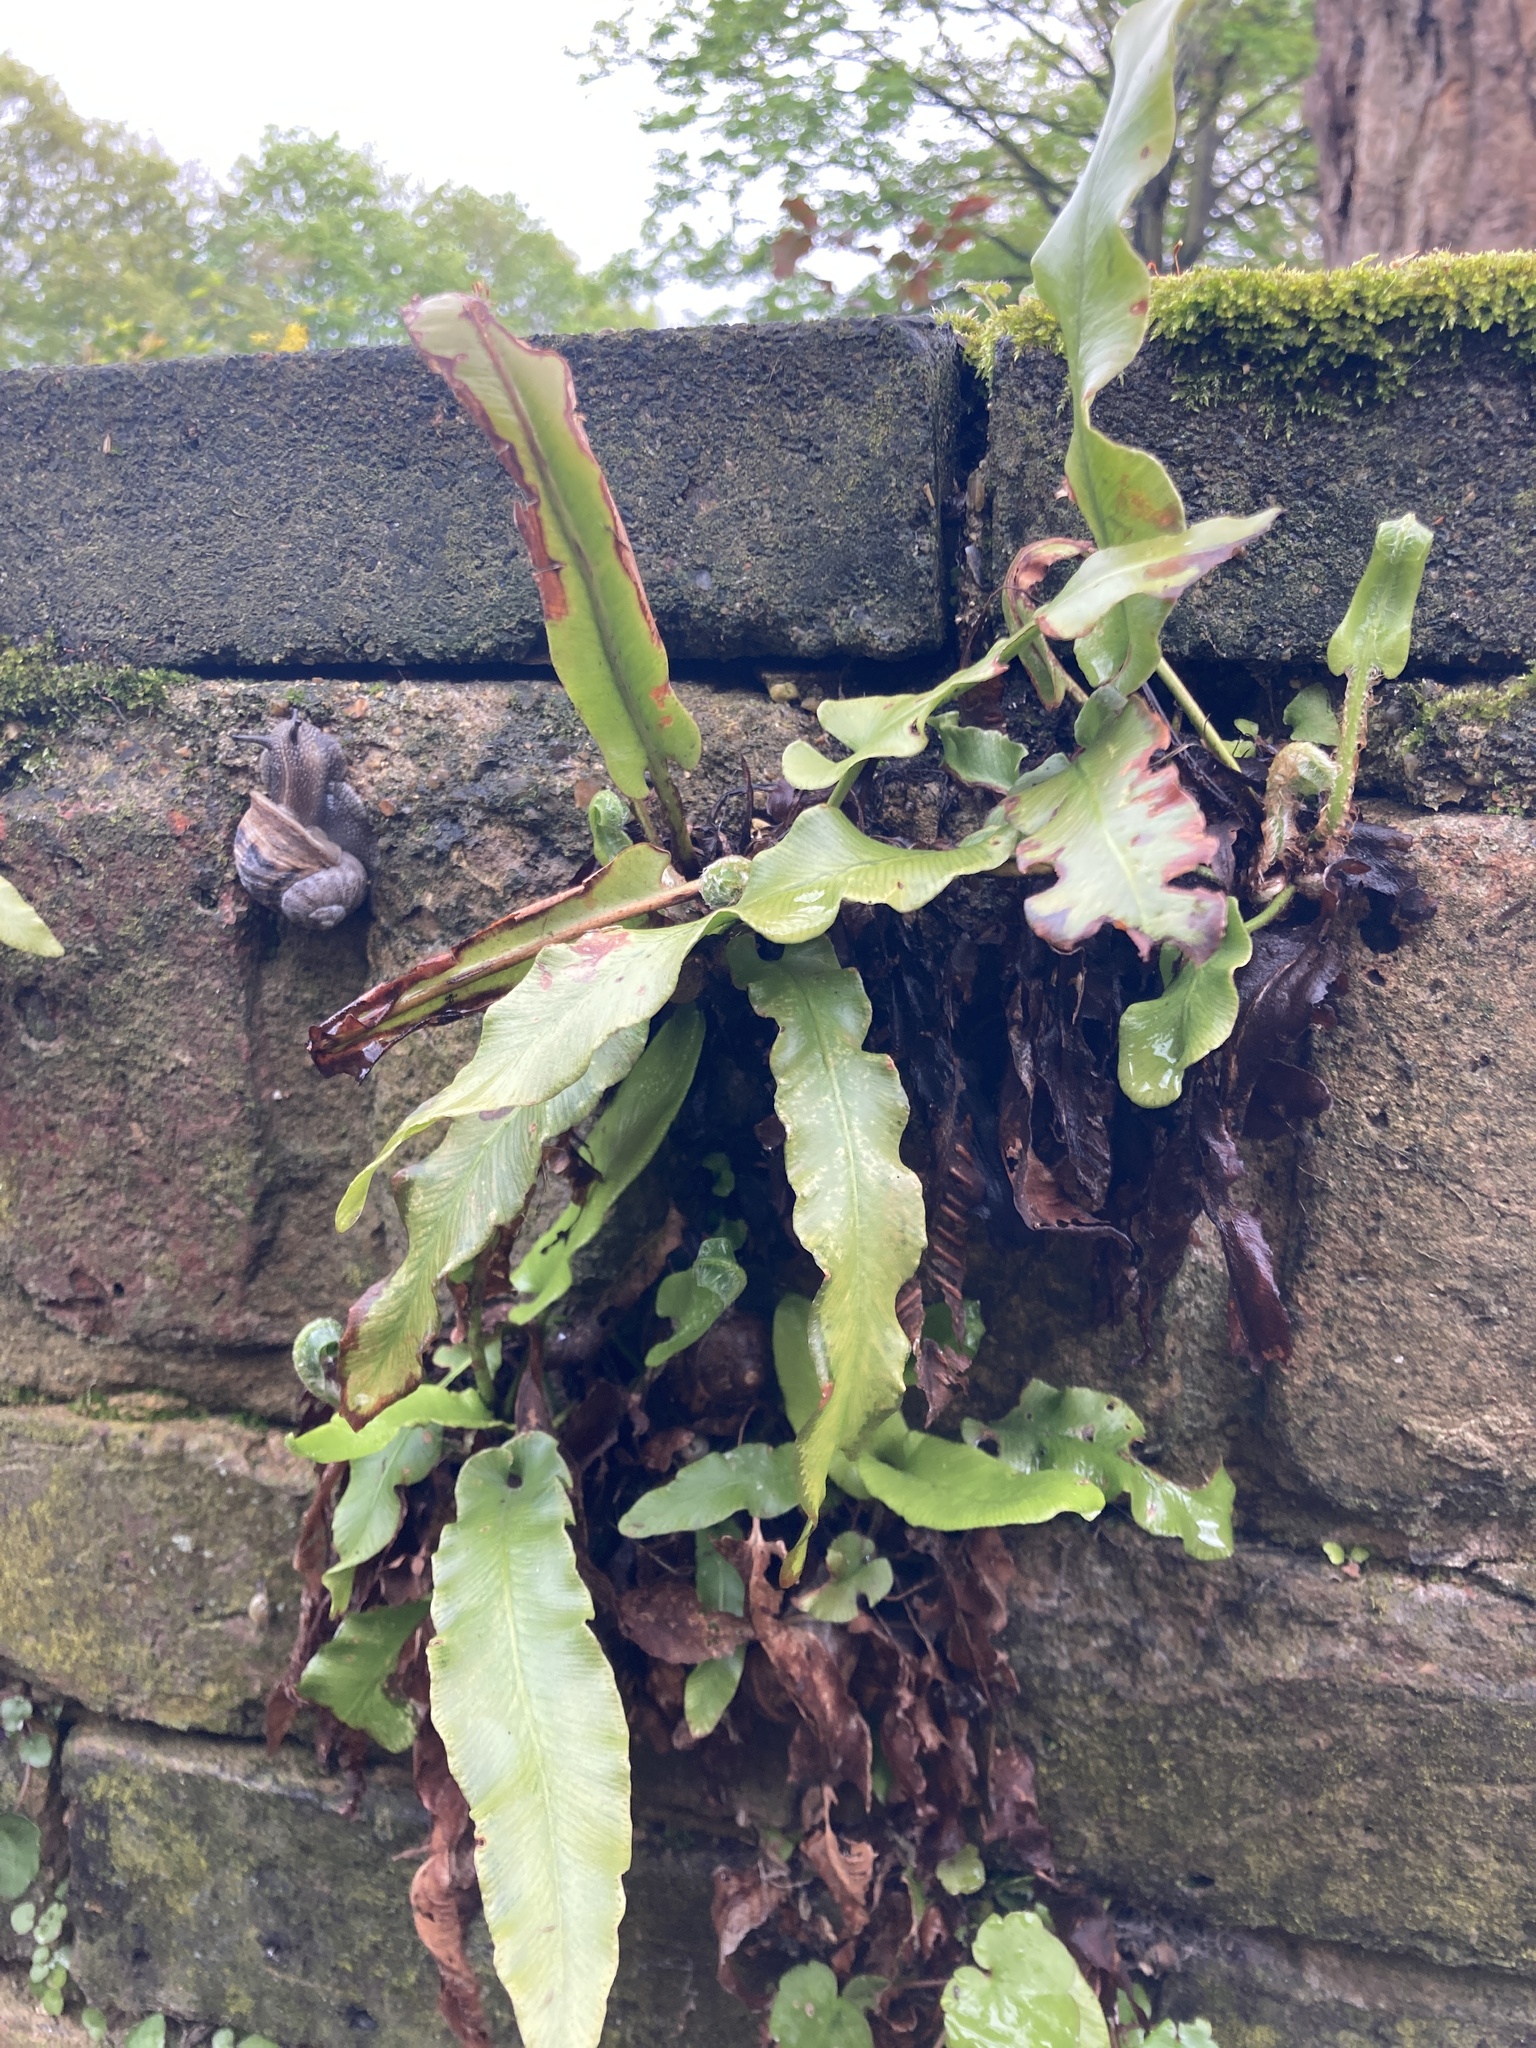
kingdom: Plantae
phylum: Tracheophyta
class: Polypodiopsida
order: Polypodiales
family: Aspleniaceae
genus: Asplenium
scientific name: Asplenium scolopendrium
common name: Hart's-tongue fern
